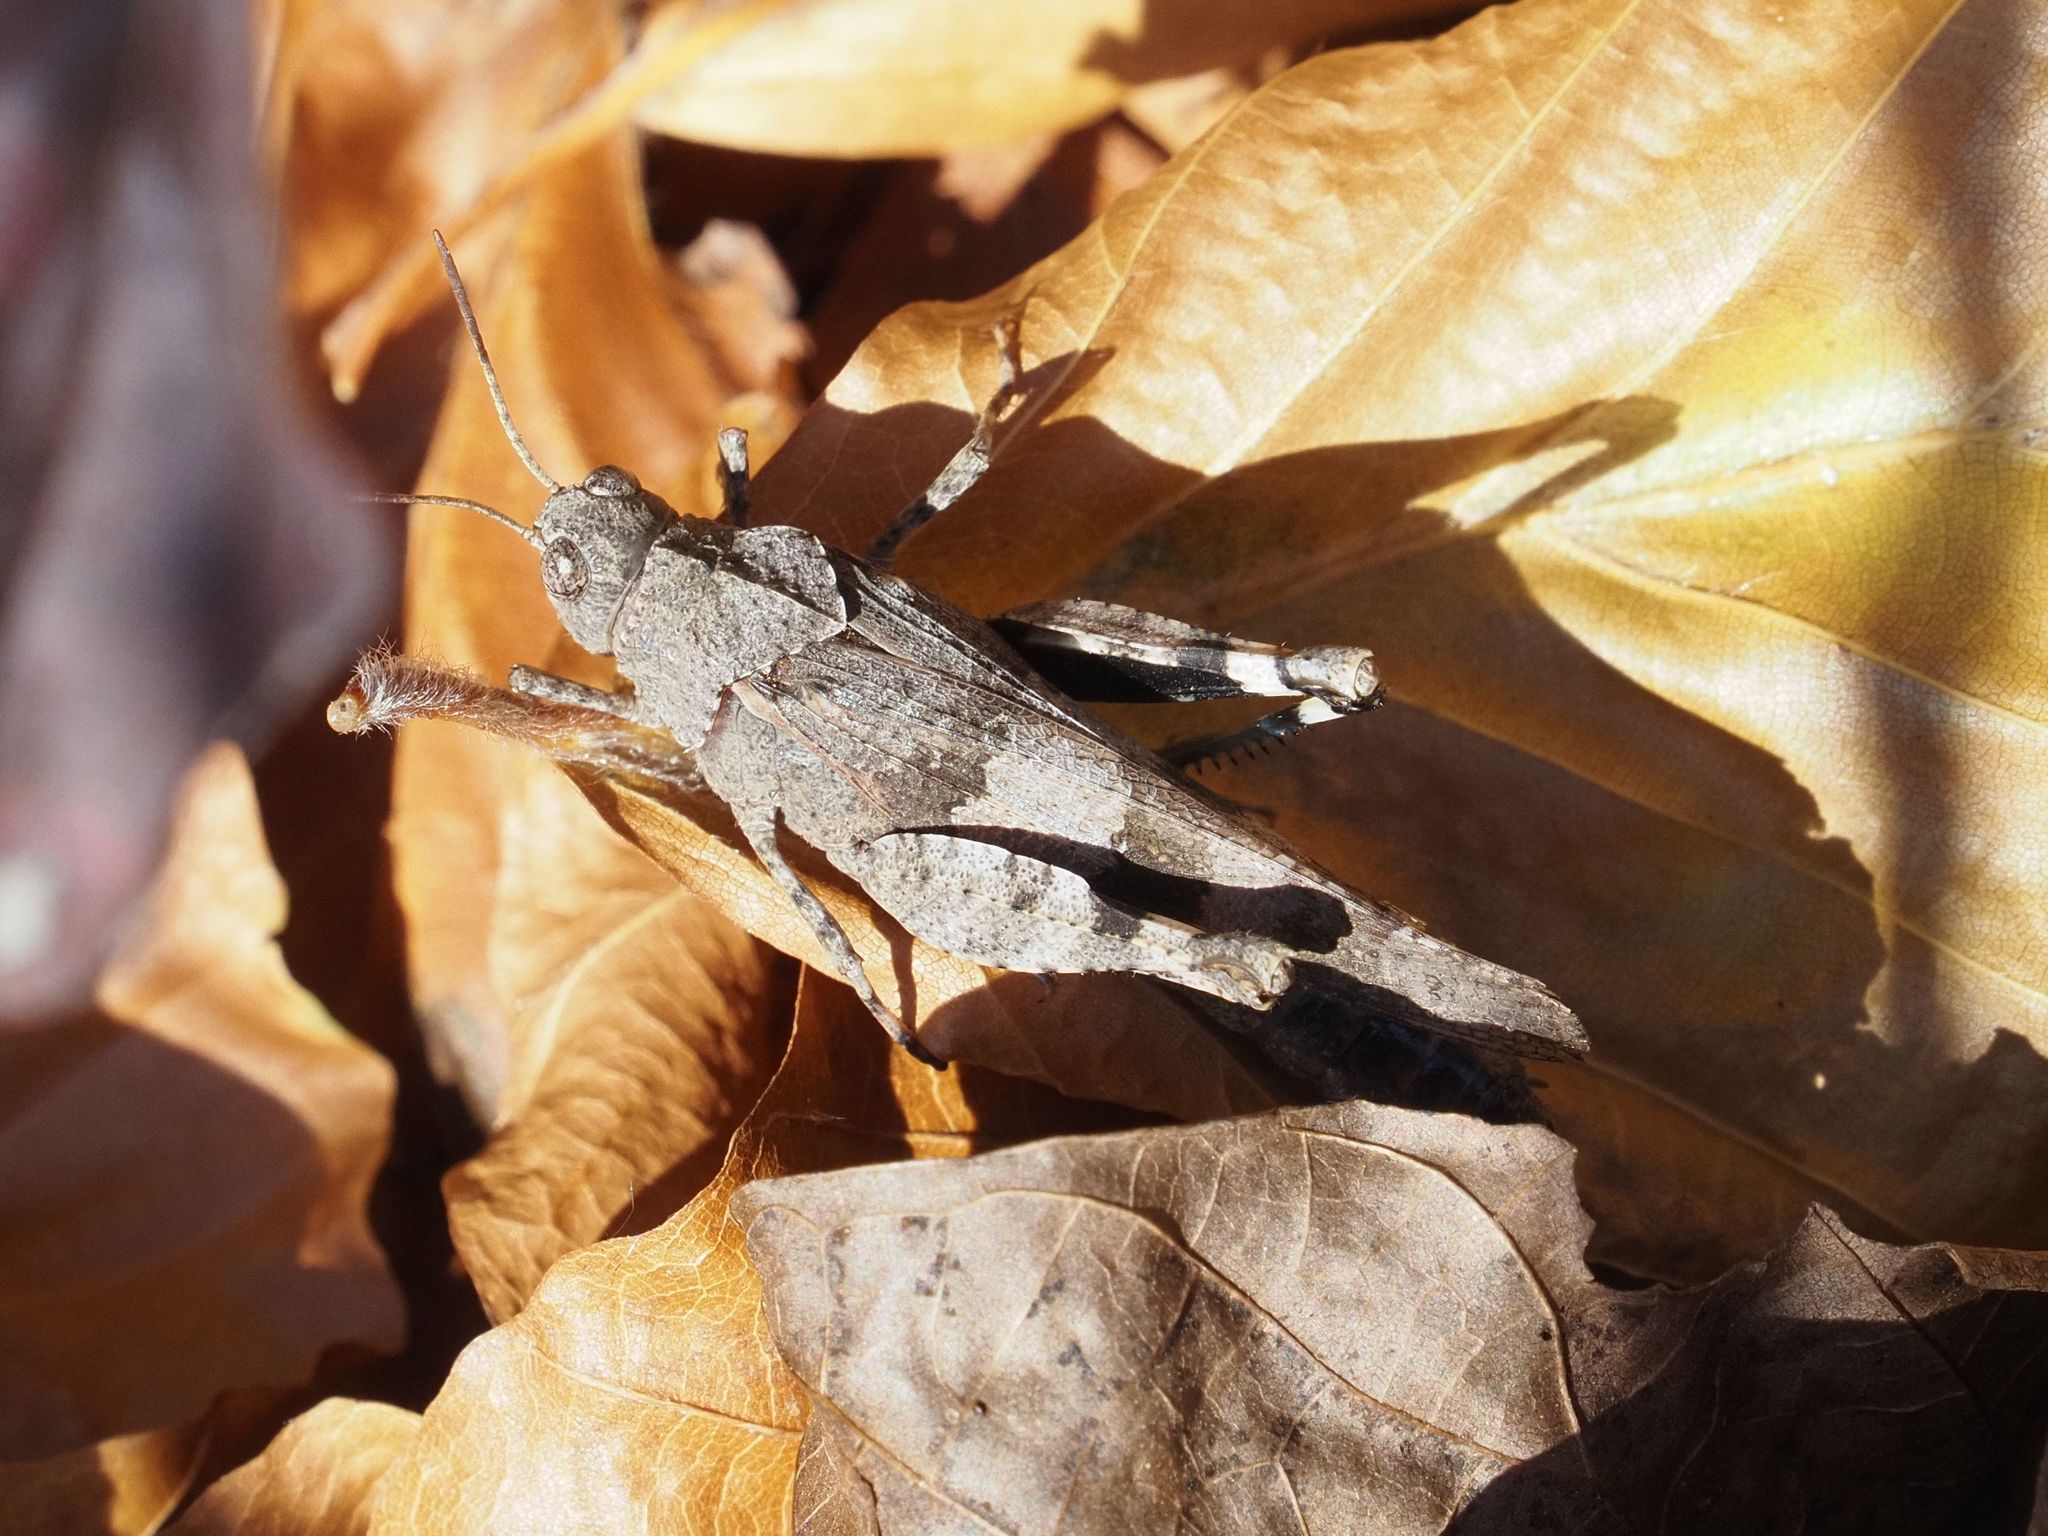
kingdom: Animalia
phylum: Arthropoda
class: Insecta
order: Orthoptera
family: Acrididae
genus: Oedipoda
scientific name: Oedipoda caerulescens
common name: Blue-winged grasshopper
